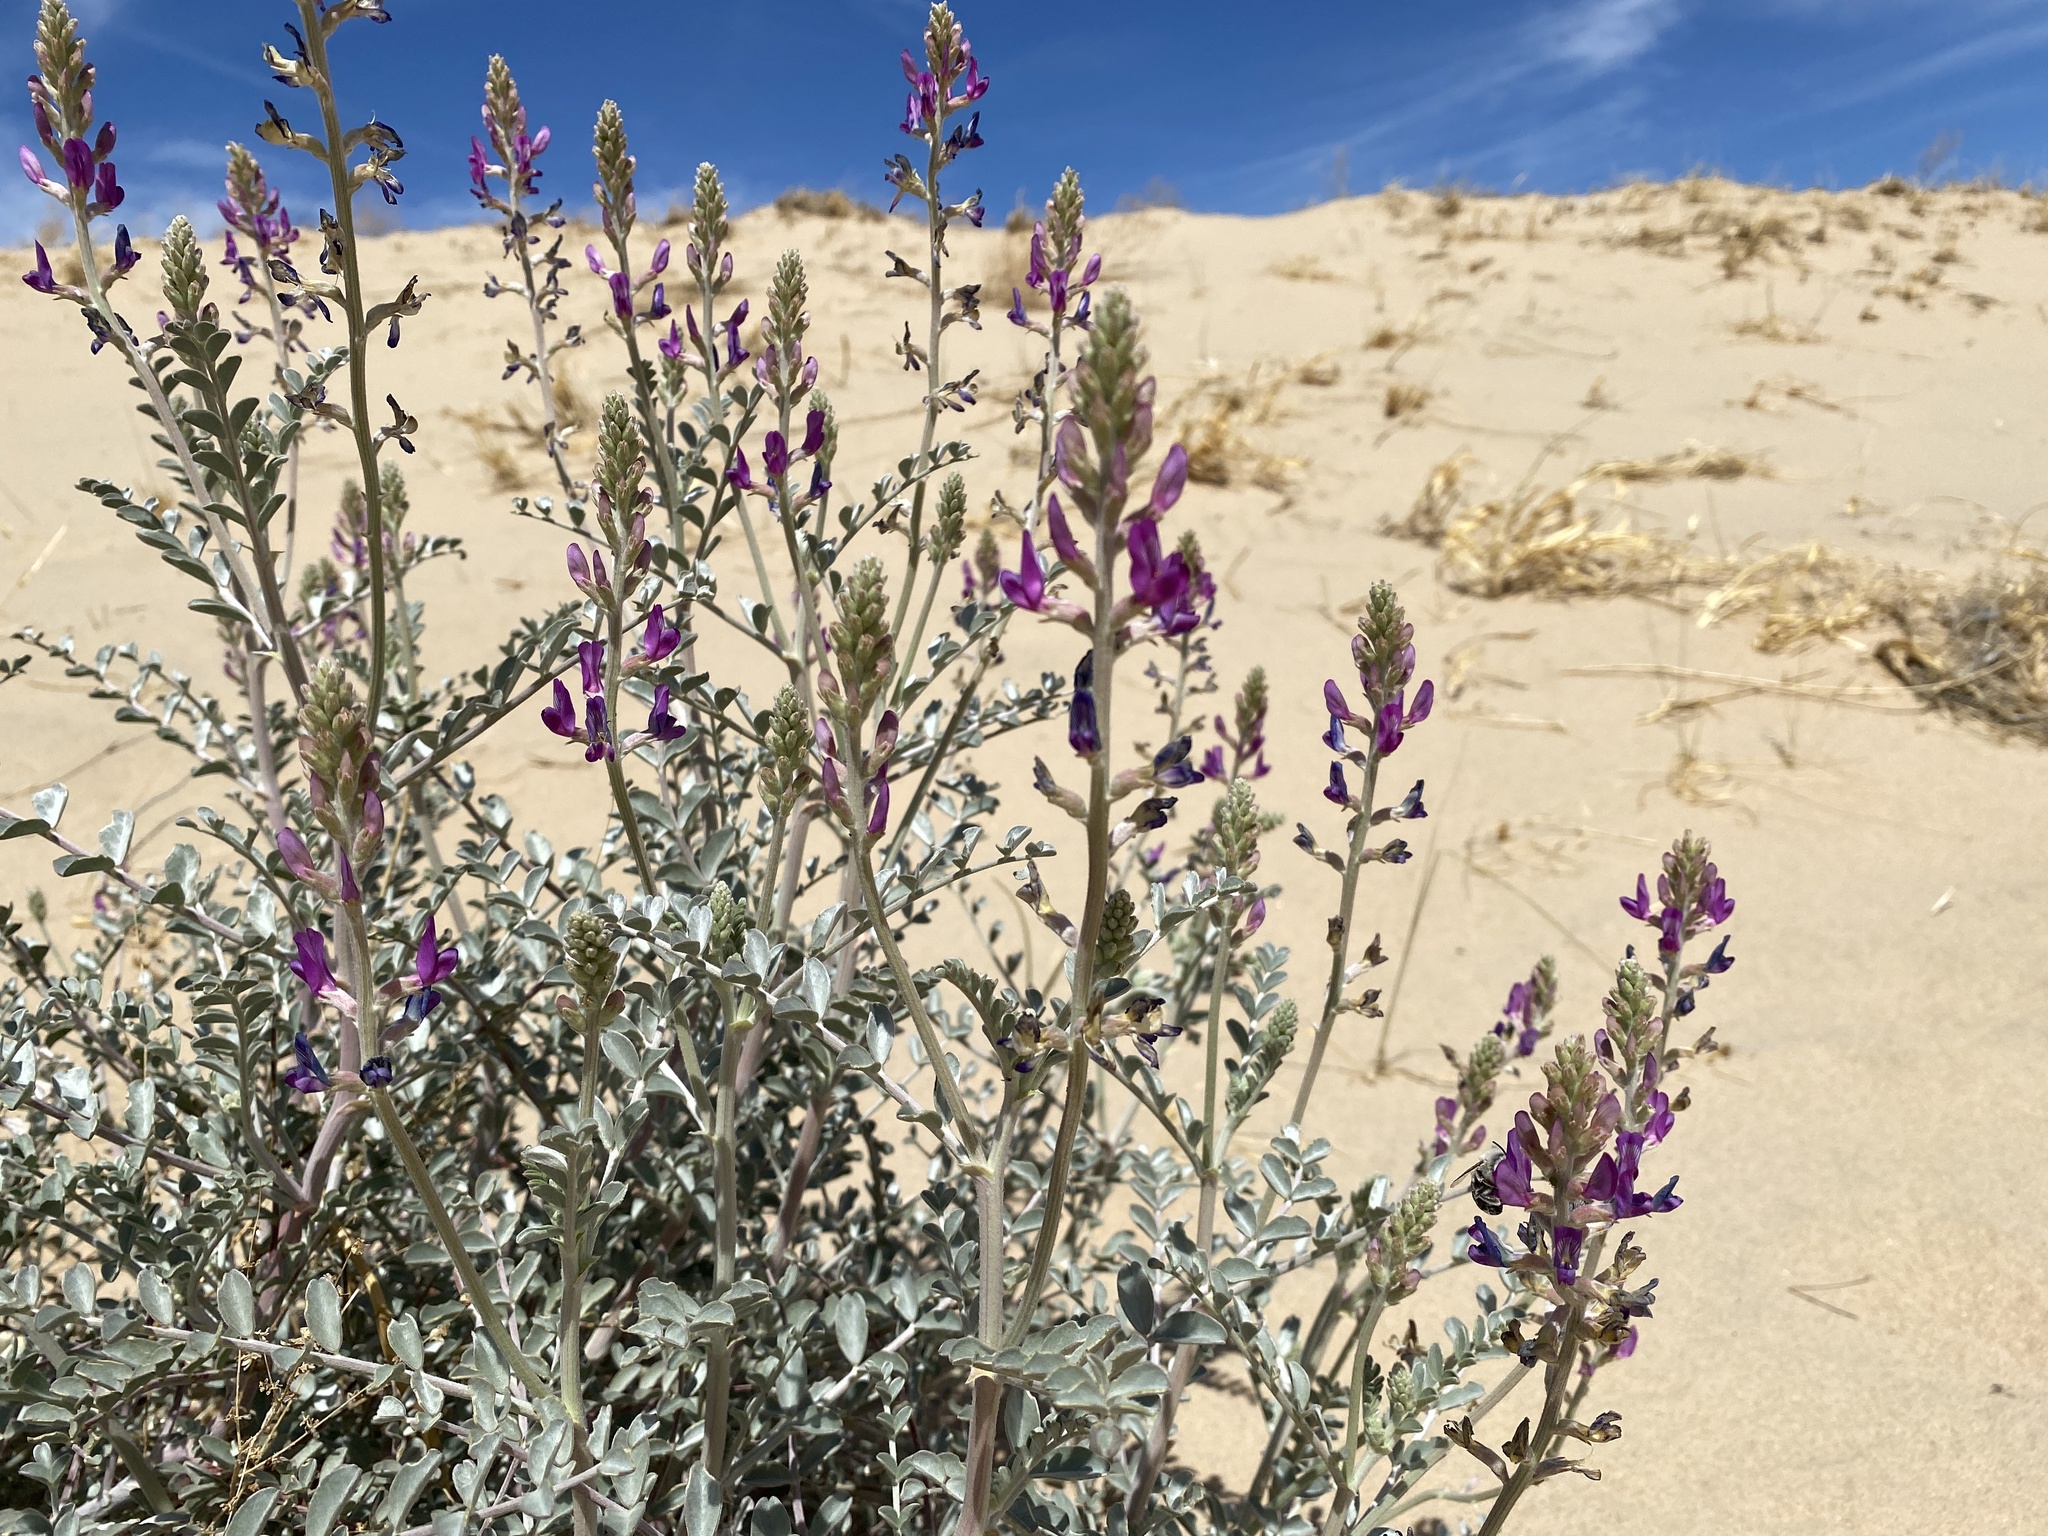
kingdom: Plantae
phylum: Tracheophyta
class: Magnoliopsida
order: Fabales
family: Fabaceae
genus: Astragalus
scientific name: Astragalus lentiginosus
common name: Freckled milkvetch
